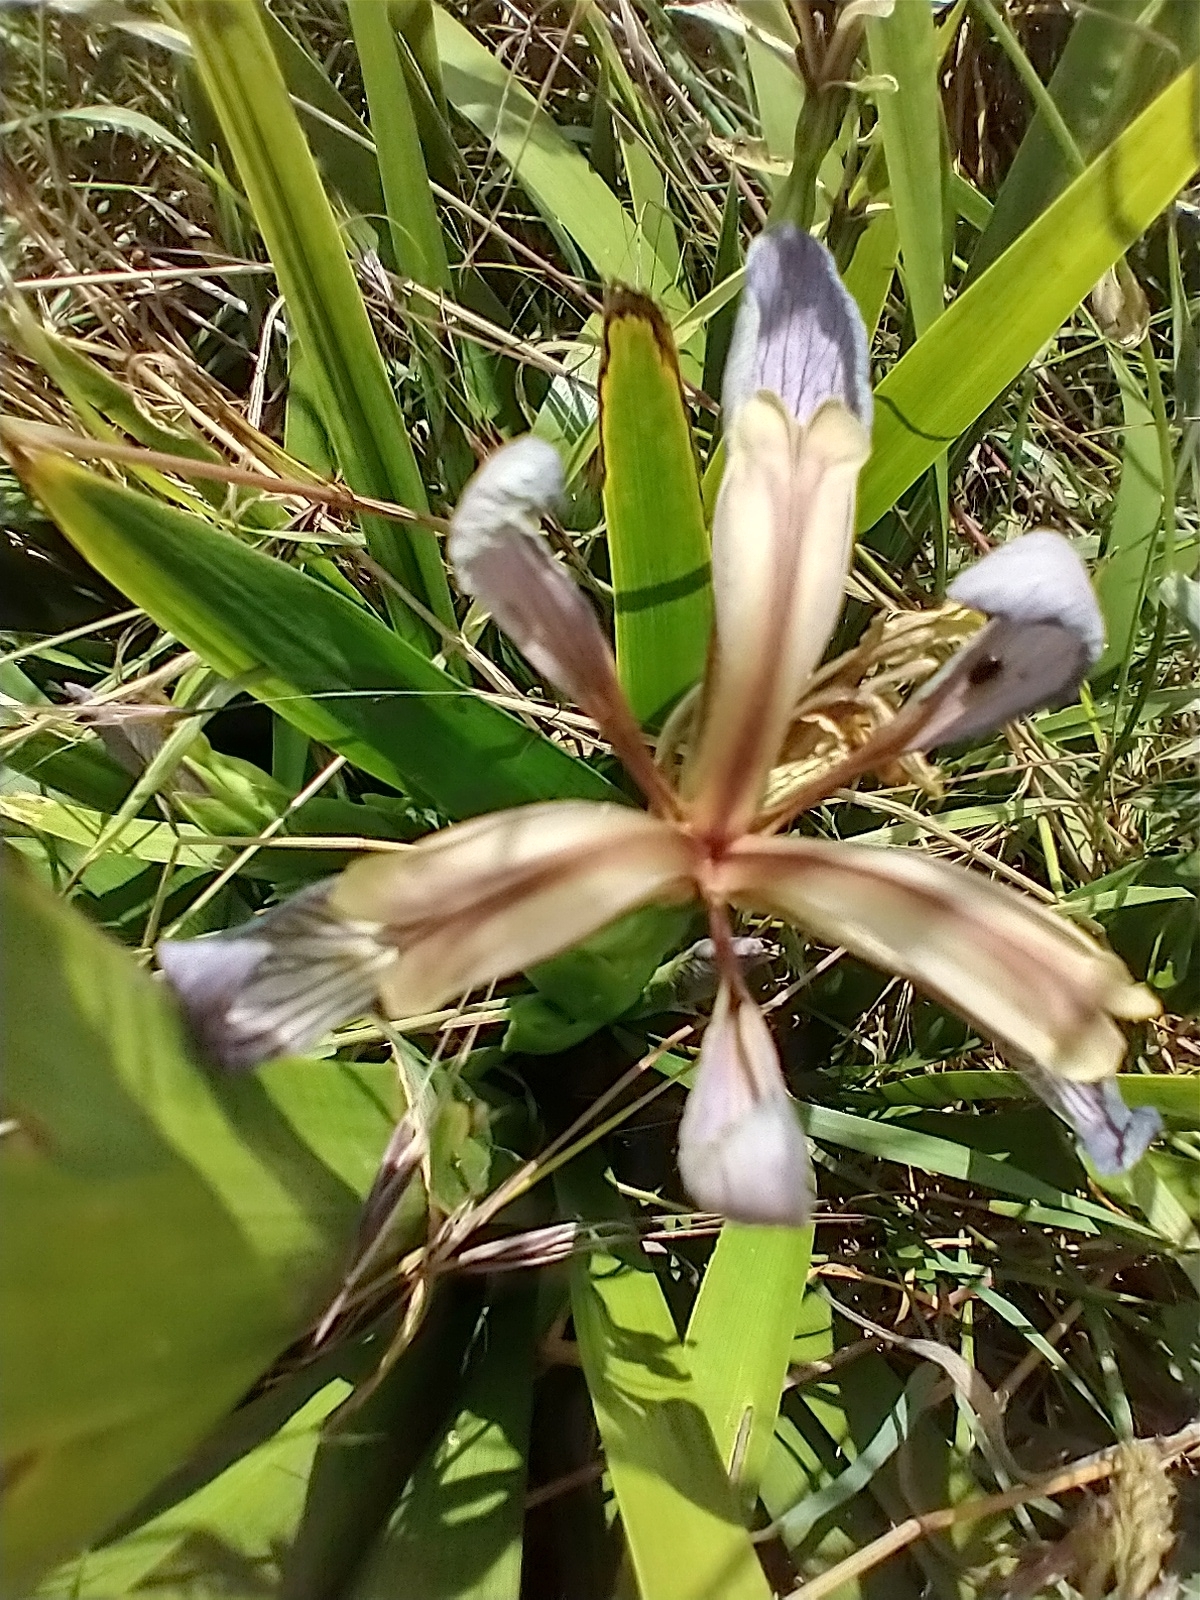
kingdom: Plantae
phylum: Tracheophyta
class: Liliopsida
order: Asparagales
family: Iridaceae
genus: Iris
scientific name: Iris foetidissima
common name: Stinking iris
